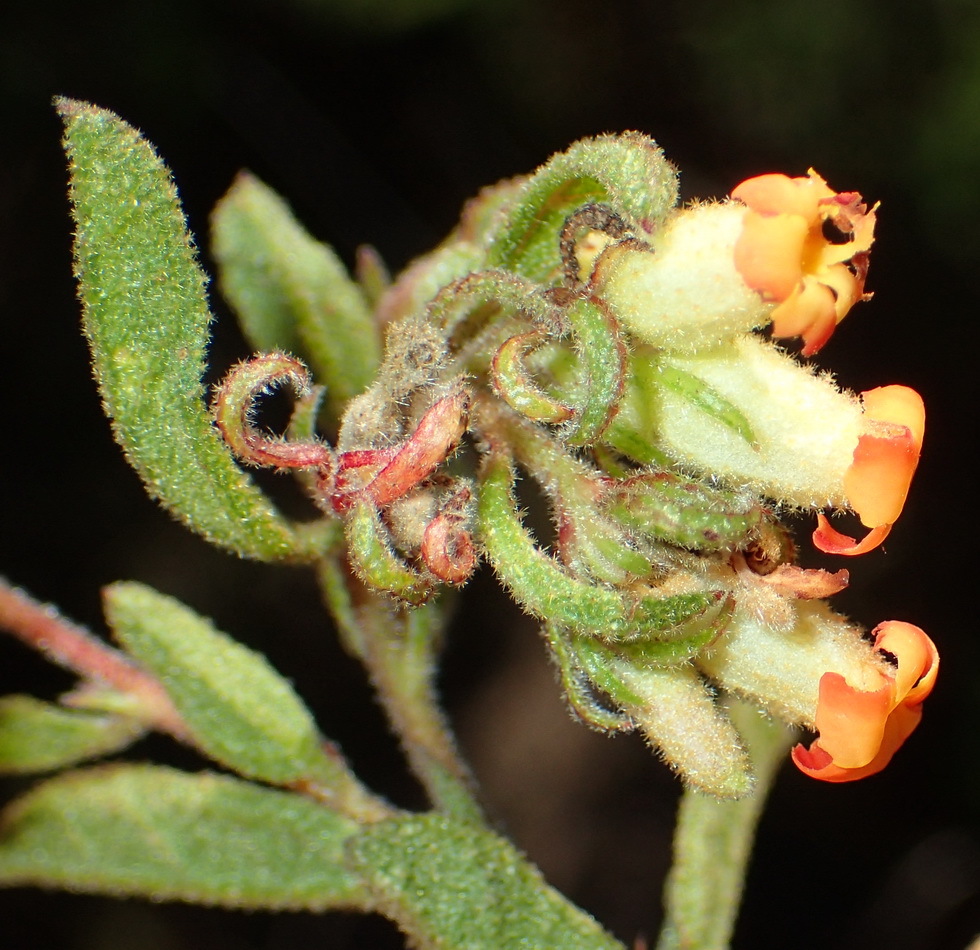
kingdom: Plantae
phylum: Tracheophyta
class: Magnoliopsida
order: Malvales
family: Malvaceae
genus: Hermannia
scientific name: Hermannia salviifolia
